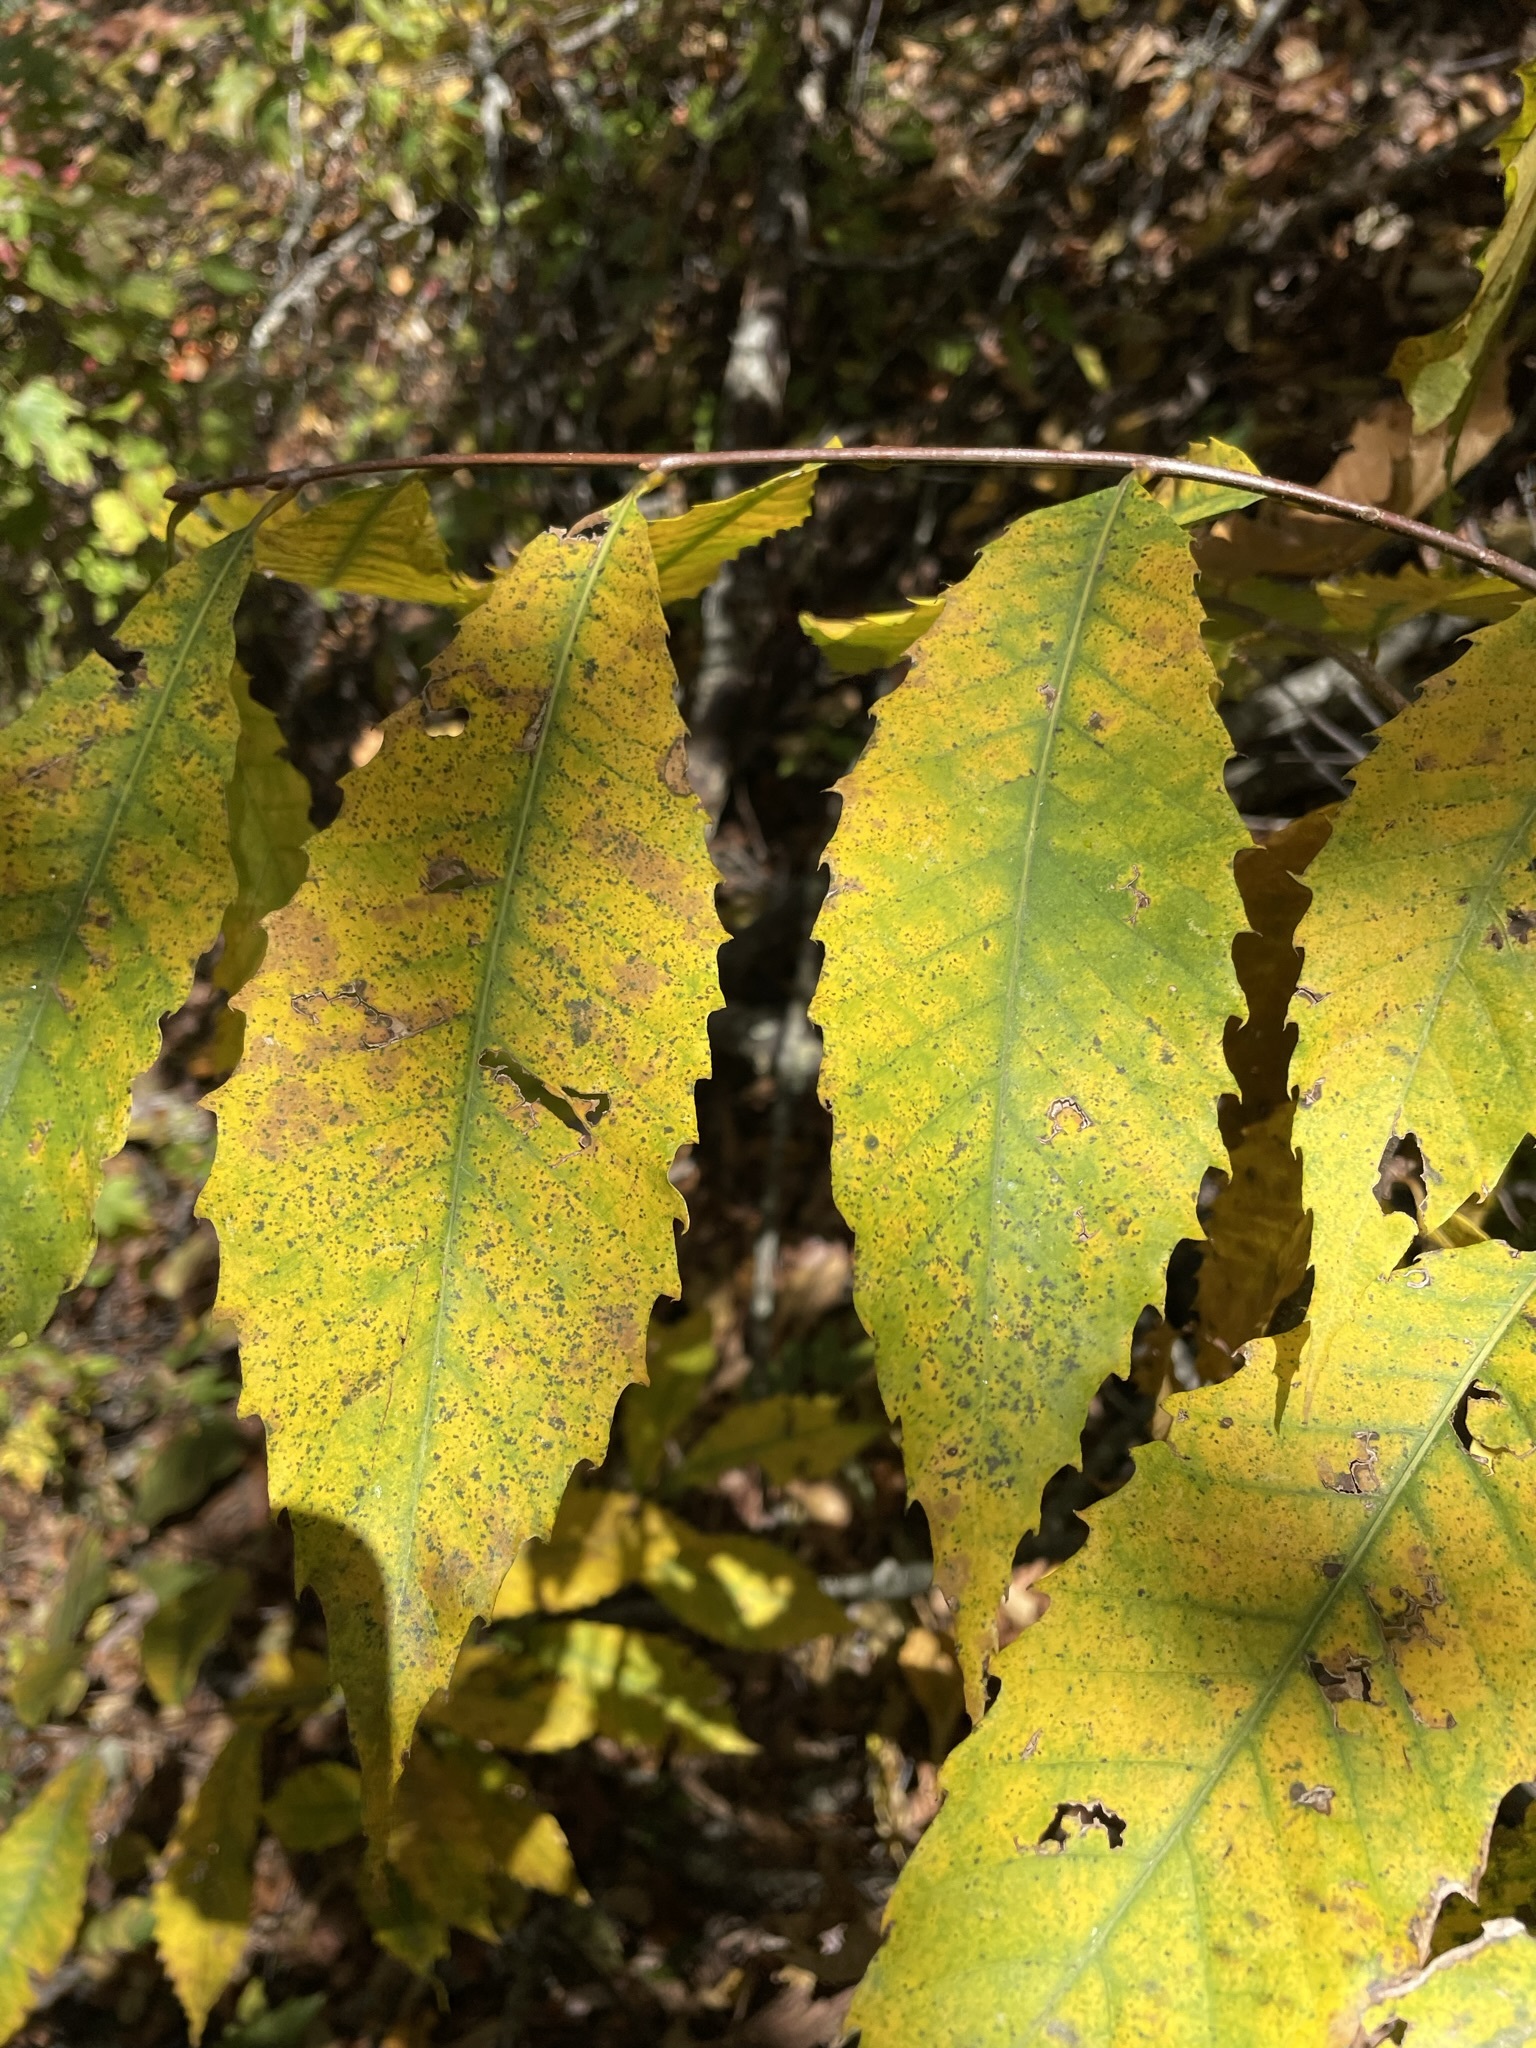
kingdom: Plantae
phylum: Tracheophyta
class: Magnoliopsida
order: Fagales
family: Fagaceae
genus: Castanea
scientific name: Castanea dentata
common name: American chestnut
